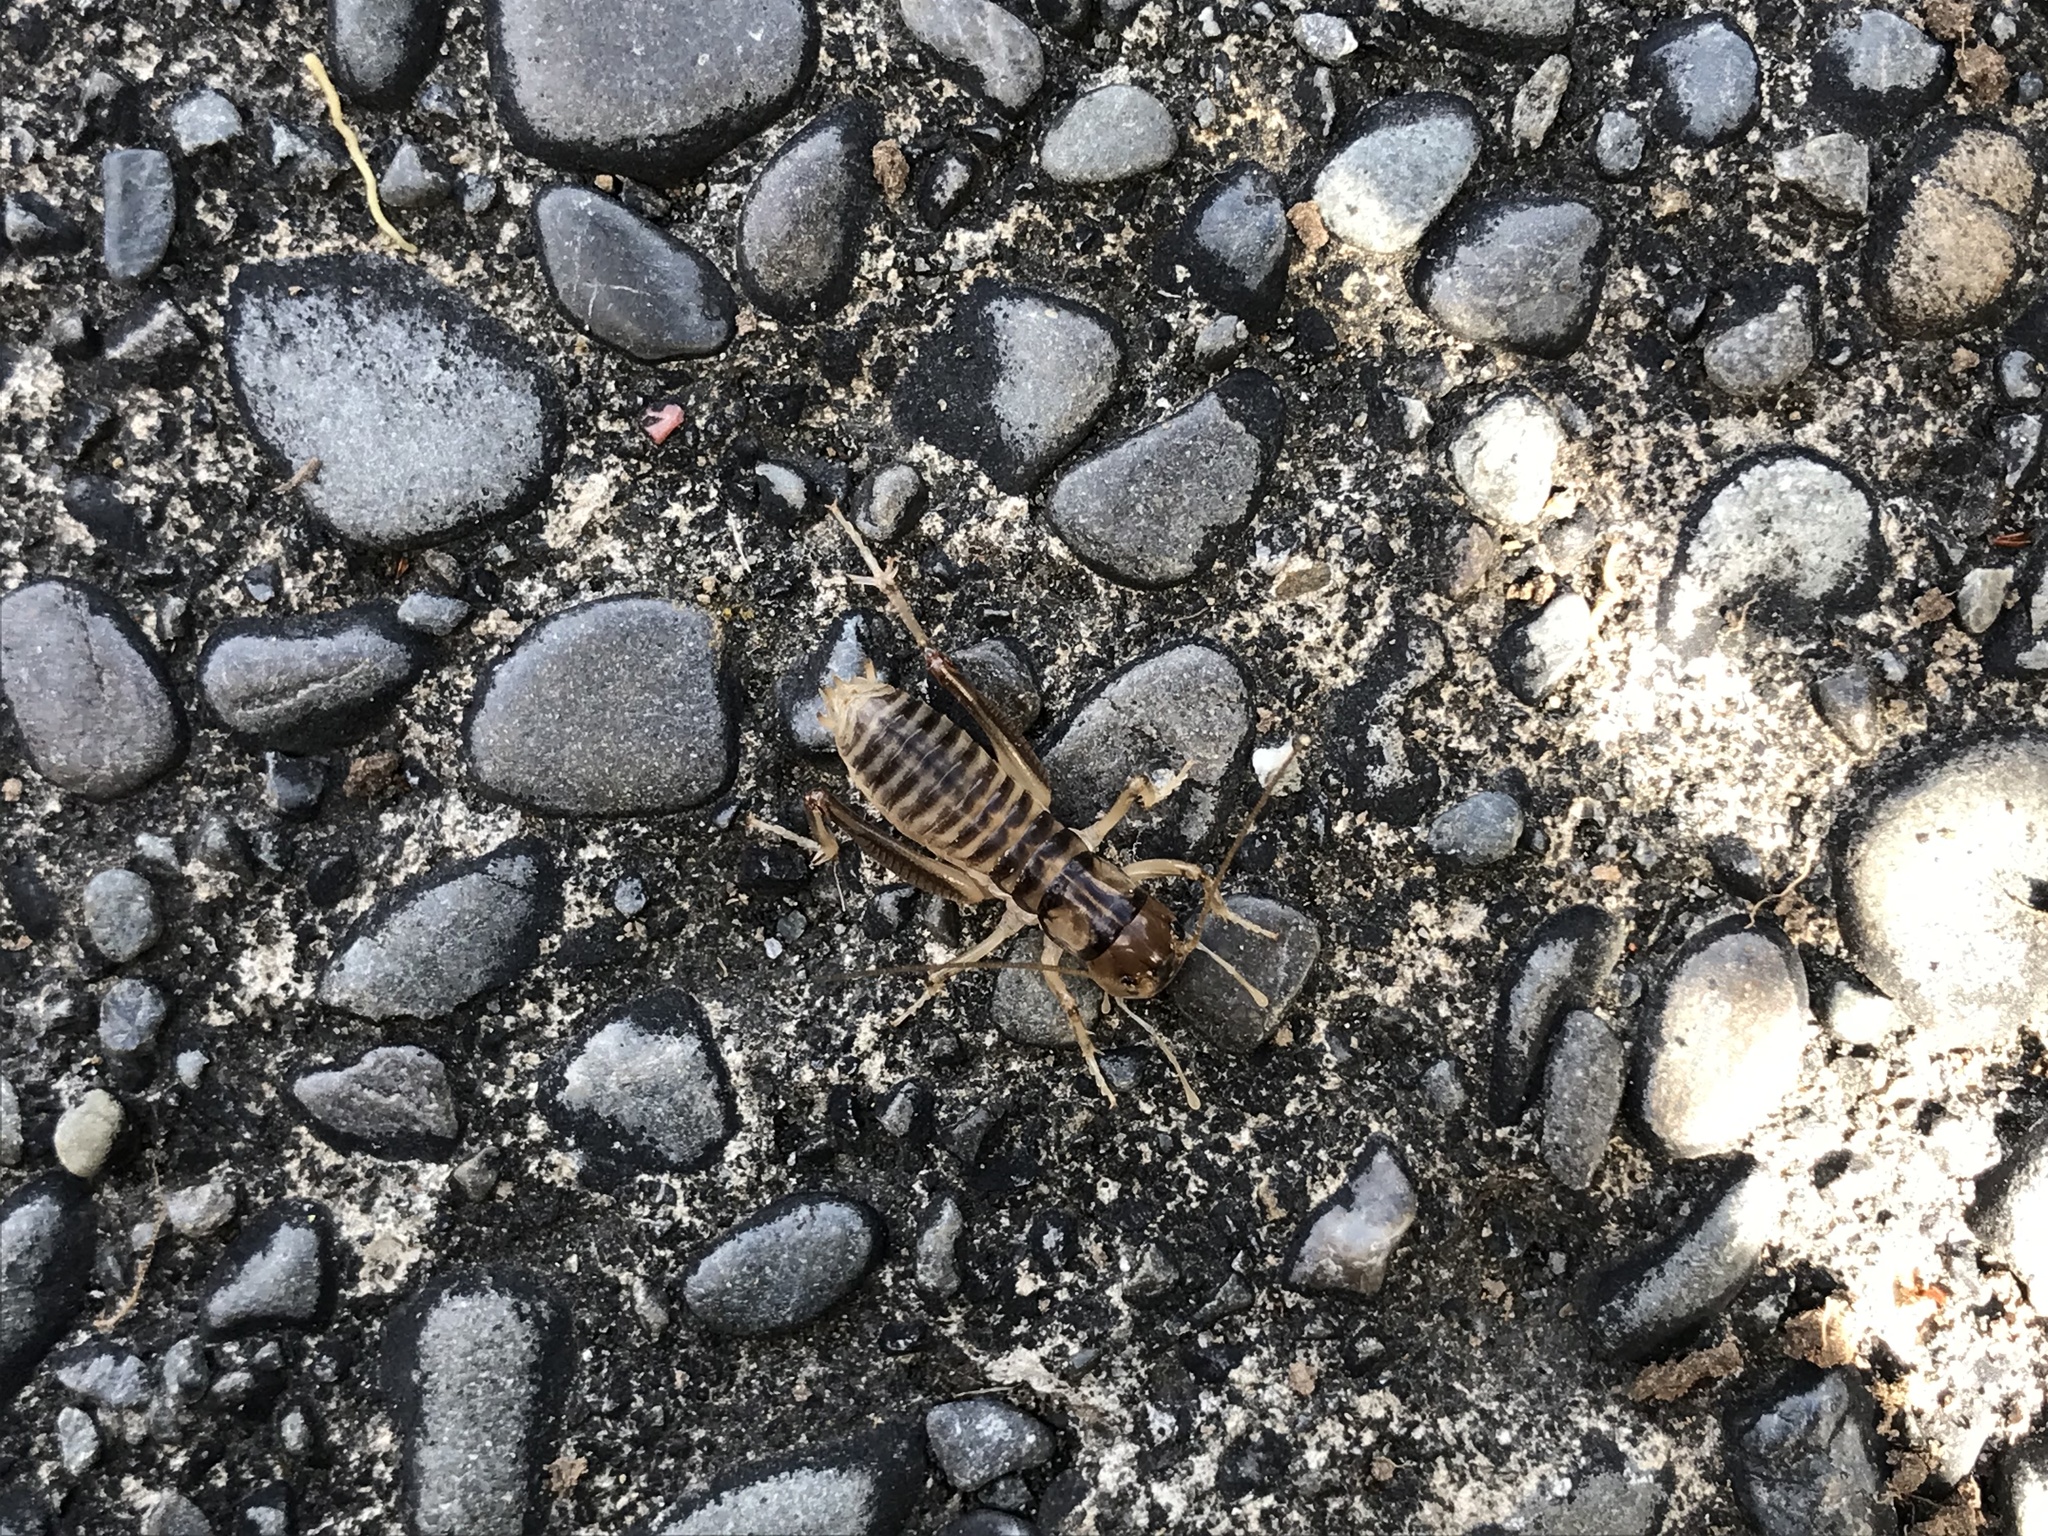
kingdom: Animalia
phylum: Arthropoda
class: Insecta
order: Orthoptera
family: Anostostomatidae
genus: Hemiandrus
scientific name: Hemiandrus pallitarsis
